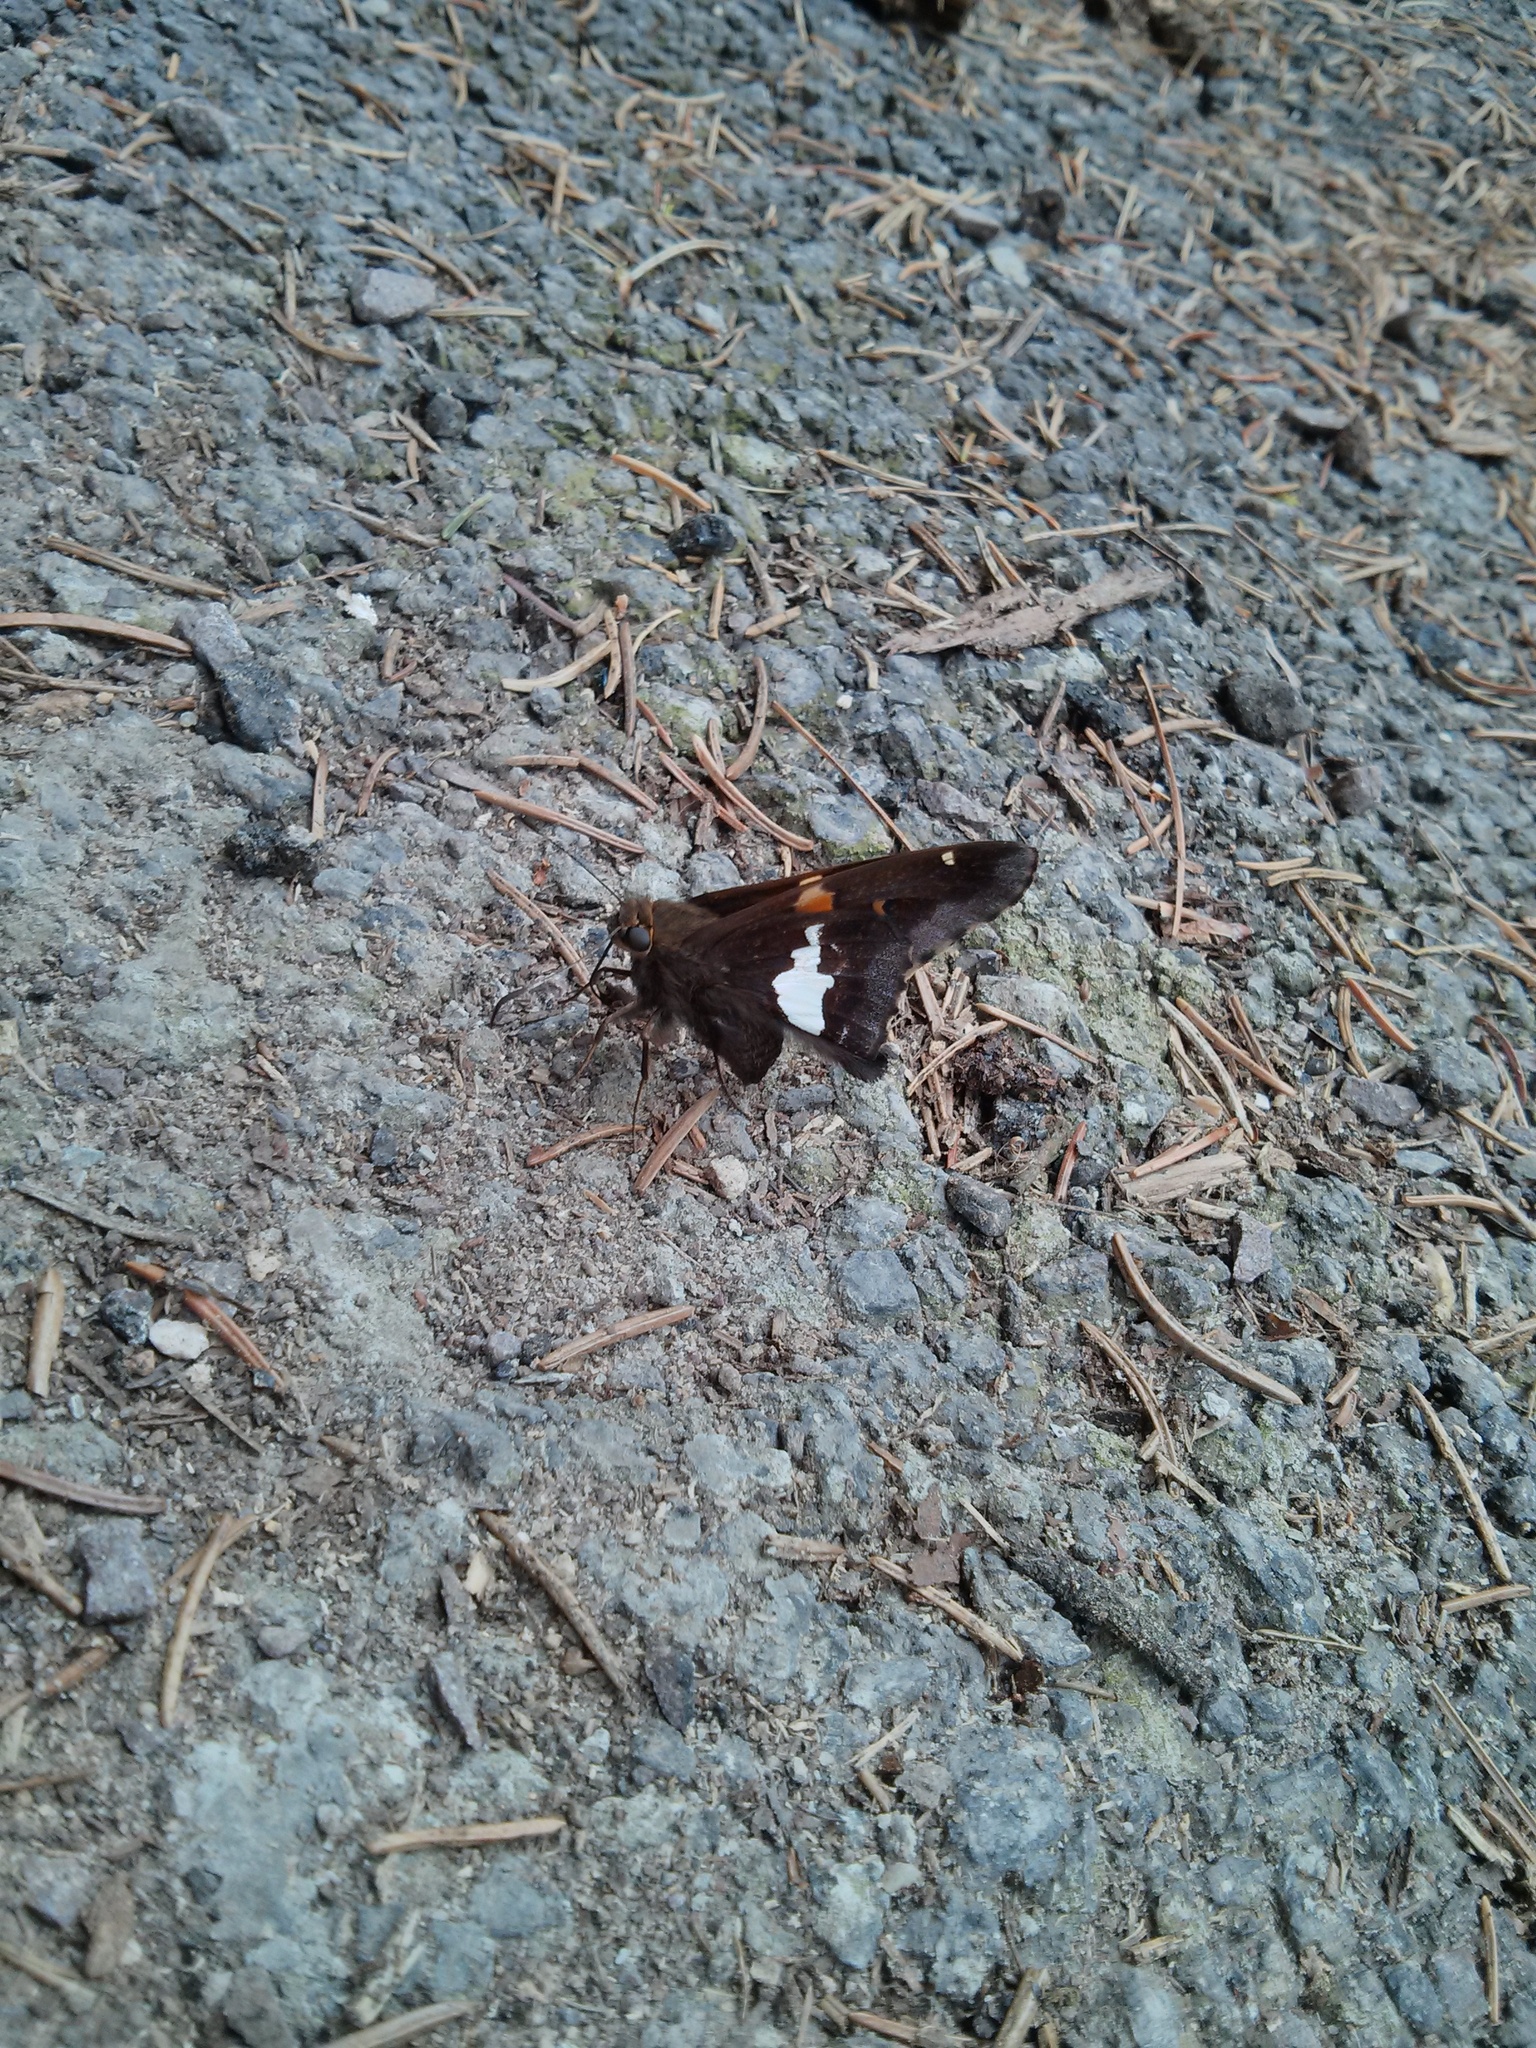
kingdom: Animalia
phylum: Arthropoda
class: Insecta
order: Lepidoptera
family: Hesperiidae
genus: Epargyreus
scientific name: Epargyreus clarus
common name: Silver-spotted skipper
